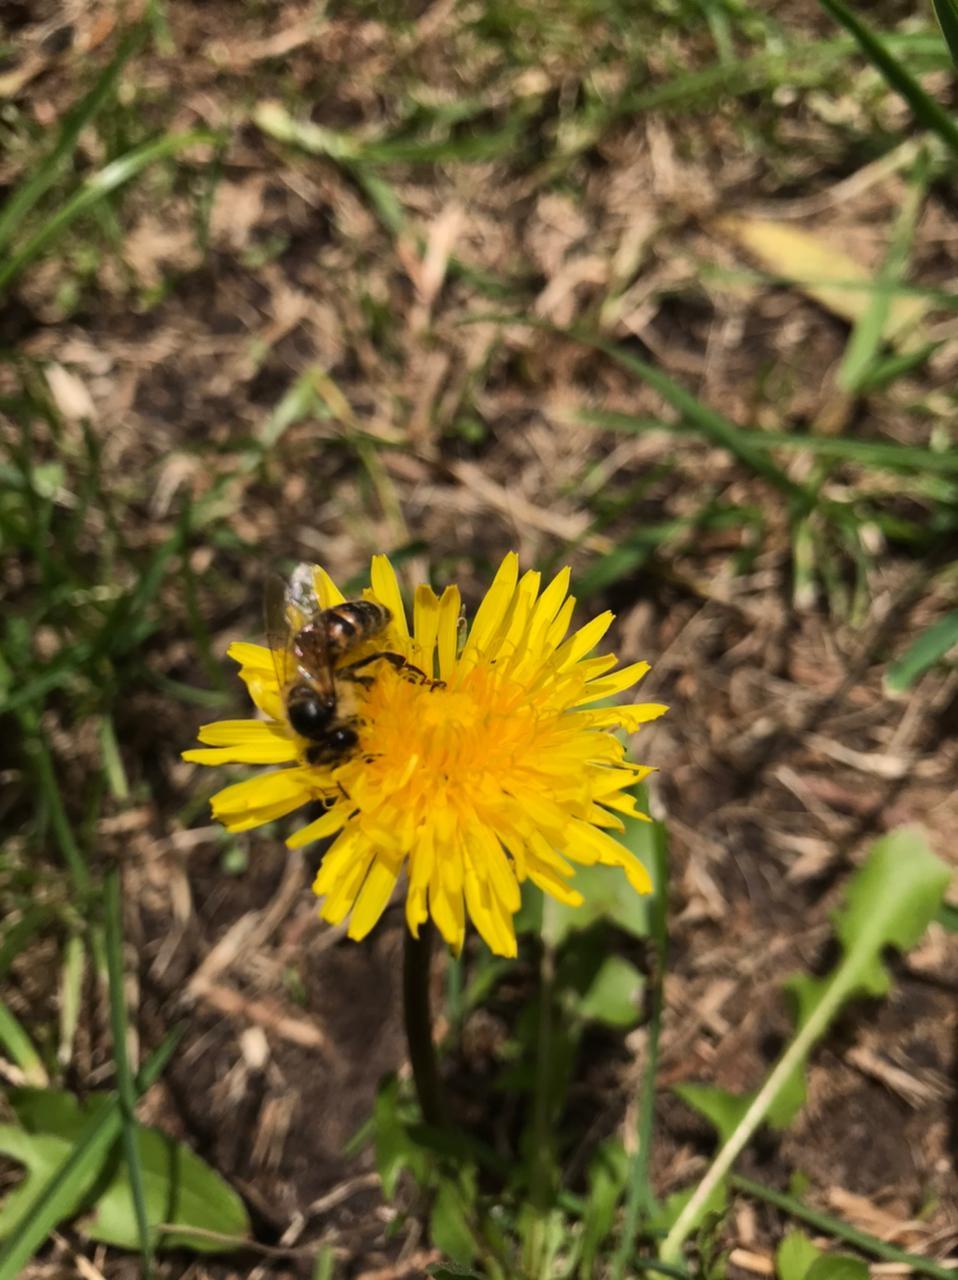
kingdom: Animalia
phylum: Arthropoda
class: Insecta
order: Hymenoptera
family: Apidae
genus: Apis
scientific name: Apis mellifera
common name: Honey bee
